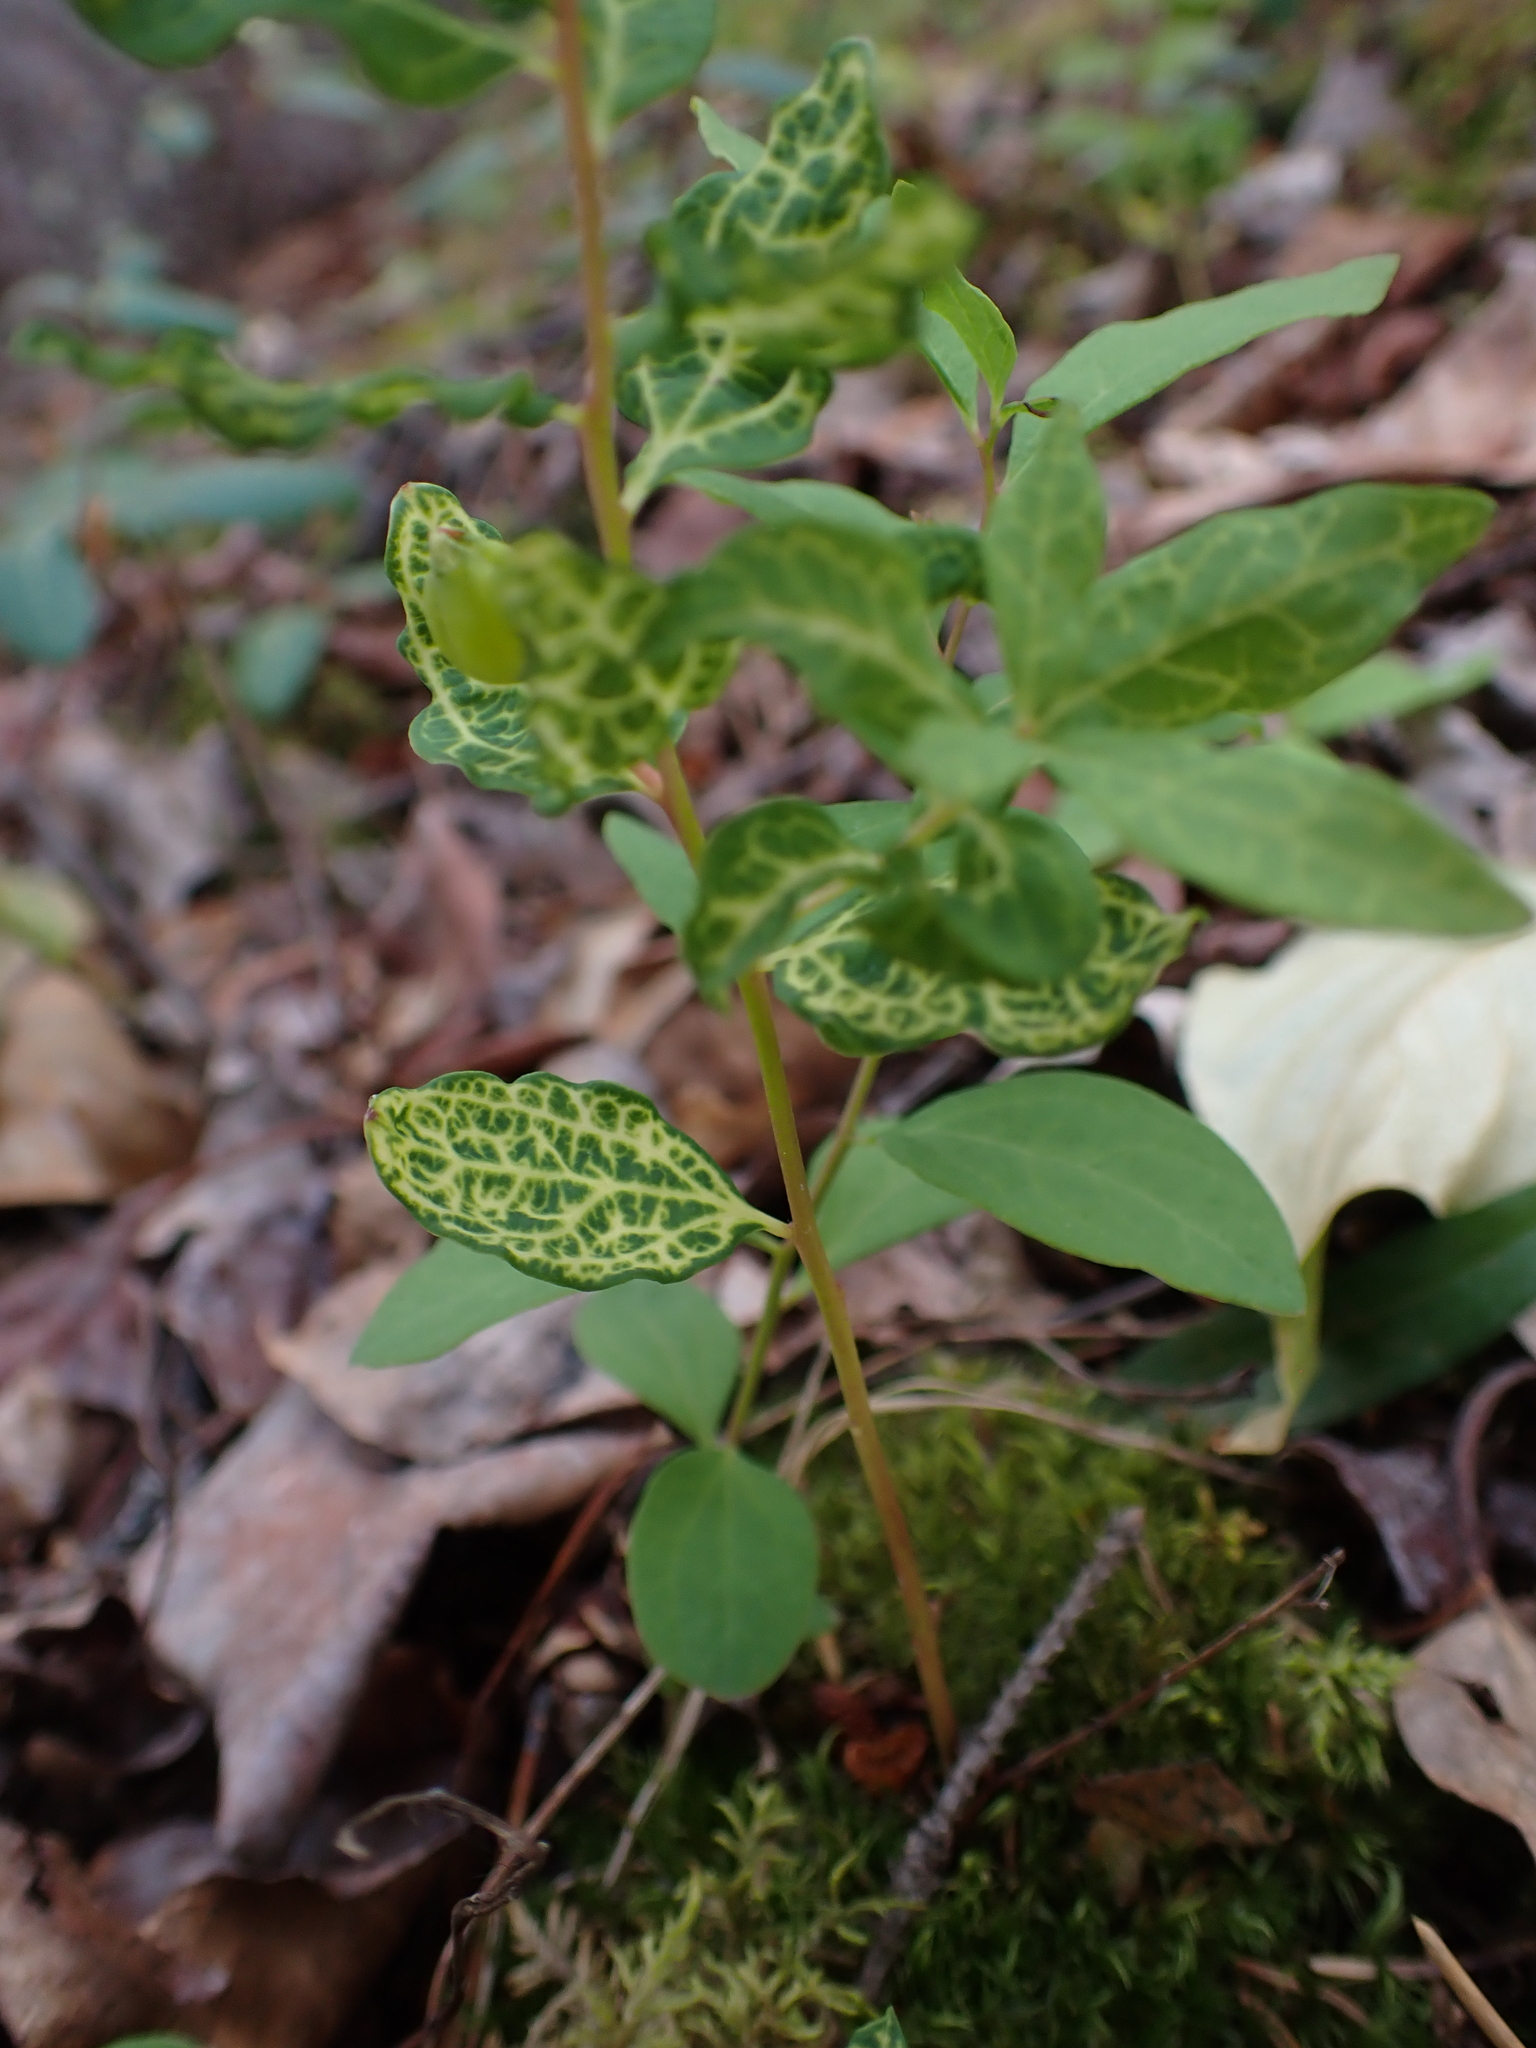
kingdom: Plantae
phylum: Tracheophyta
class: Magnoliopsida
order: Santalales
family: Comandraceae
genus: Geocaulon
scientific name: Geocaulon lividum
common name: Earthberry
